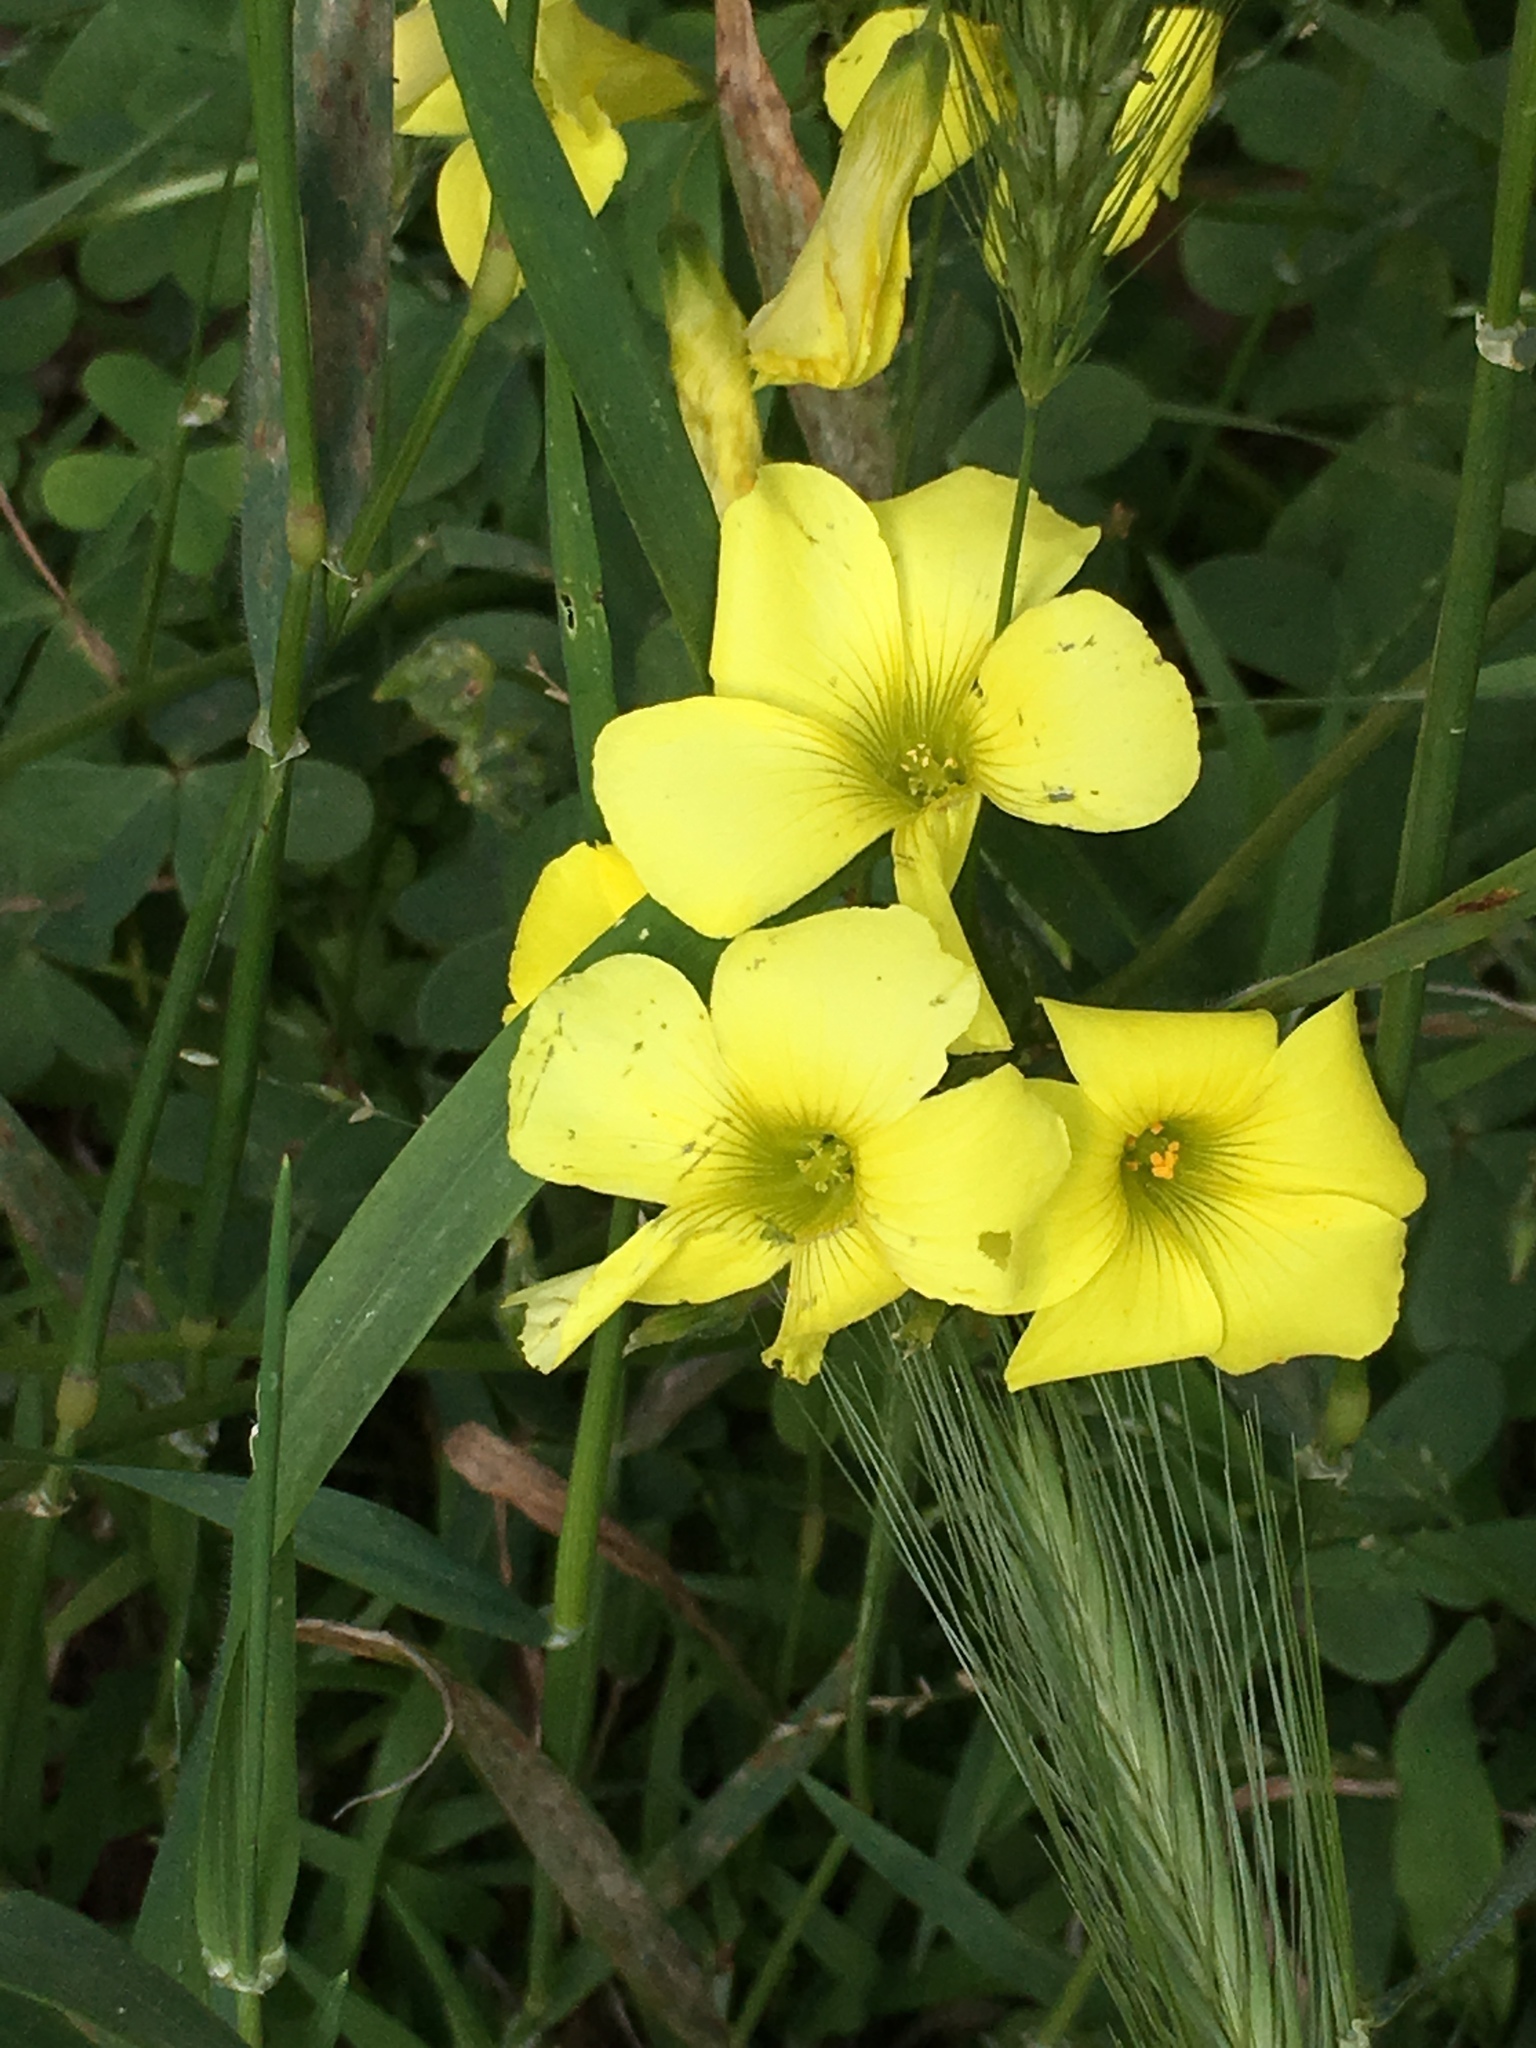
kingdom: Plantae
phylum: Tracheophyta
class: Magnoliopsida
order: Oxalidales
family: Oxalidaceae
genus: Oxalis
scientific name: Oxalis pes-caprae
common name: Bermuda-buttercup
